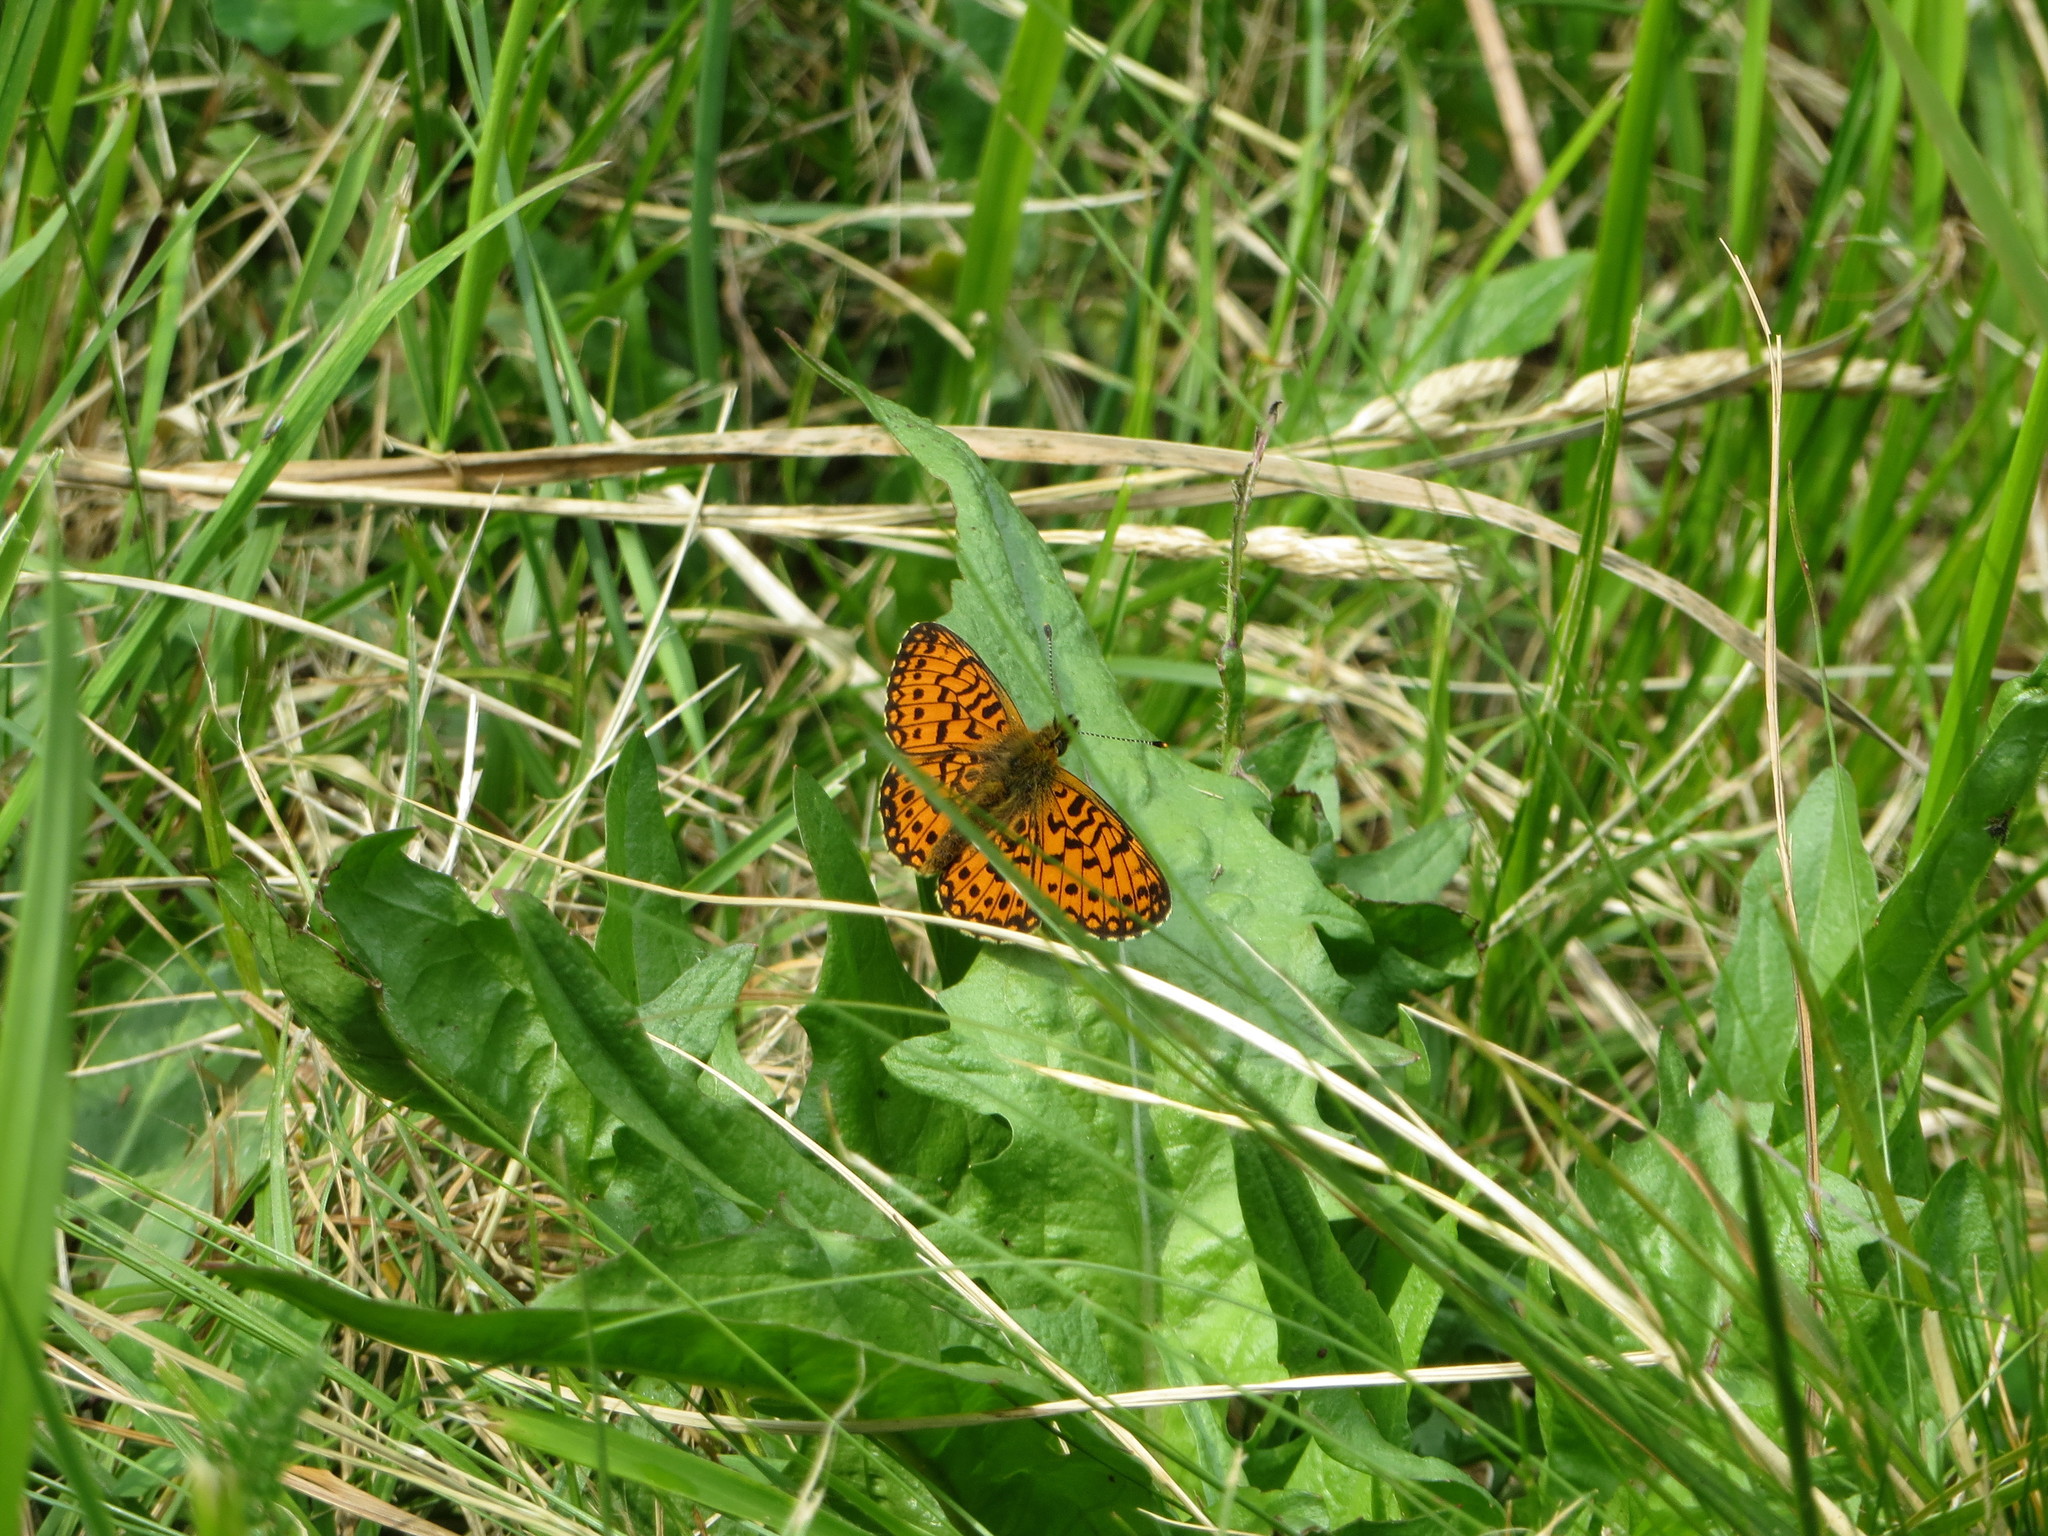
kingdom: Animalia
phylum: Arthropoda
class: Insecta
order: Lepidoptera
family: Nymphalidae
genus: Boloria
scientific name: Boloria selene
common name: Small pearl-bordered fritillary
